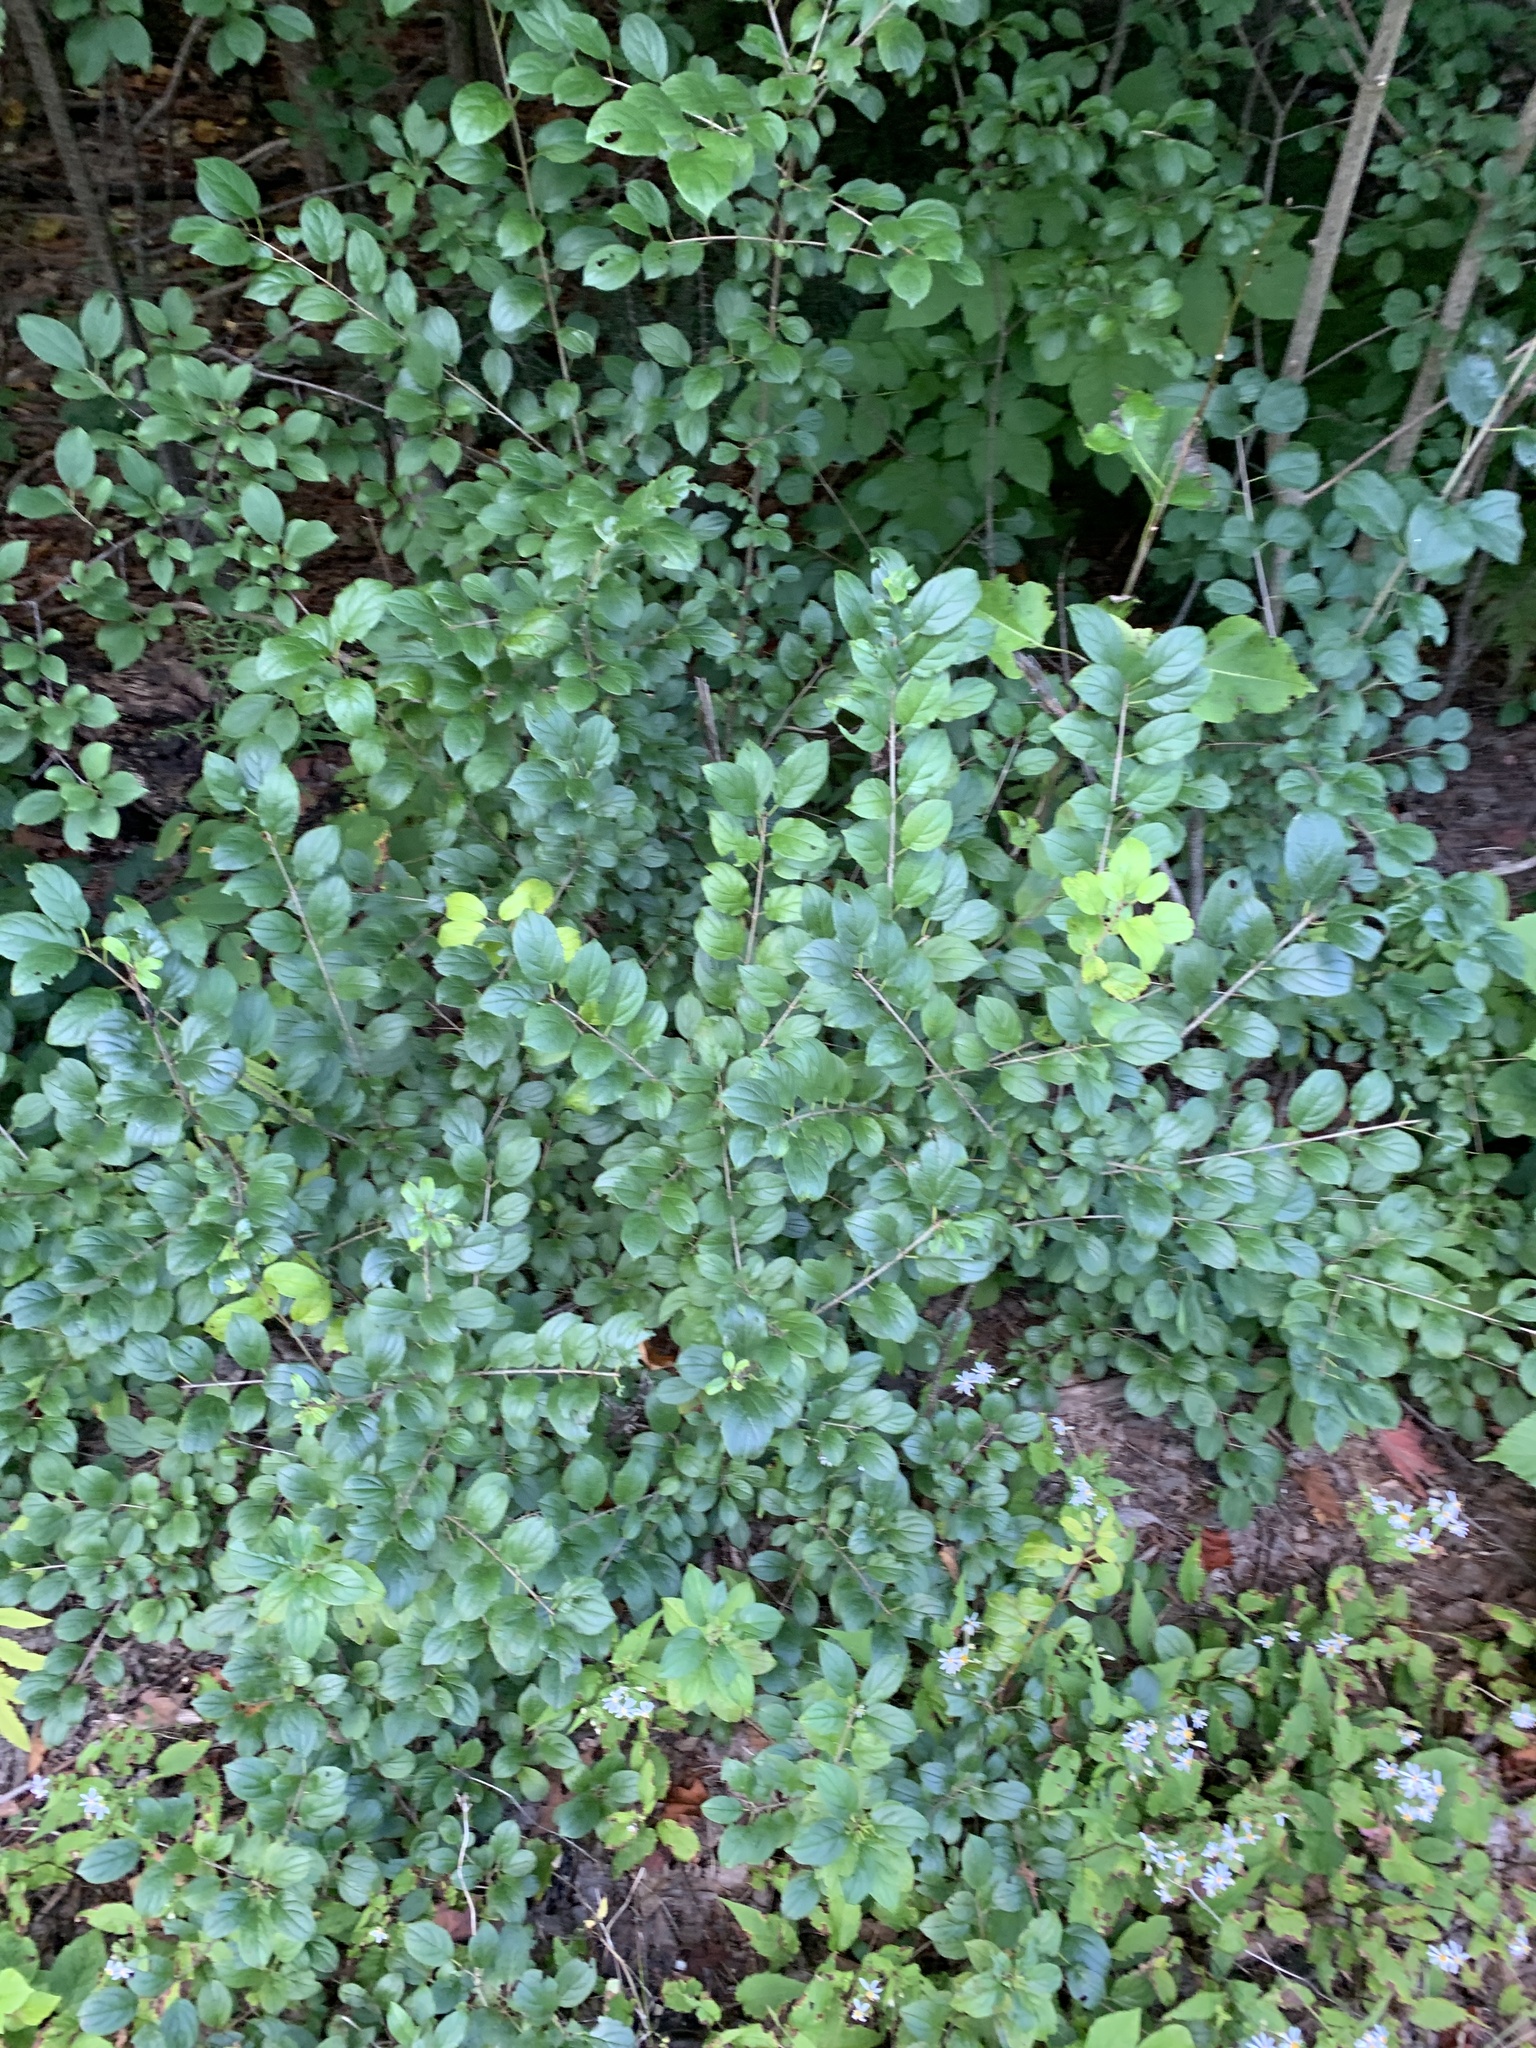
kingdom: Plantae
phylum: Tracheophyta
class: Magnoliopsida
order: Rosales
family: Rhamnaceae
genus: Rhamnus
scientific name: Rhamnus cathartica
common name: Common buckthorn
